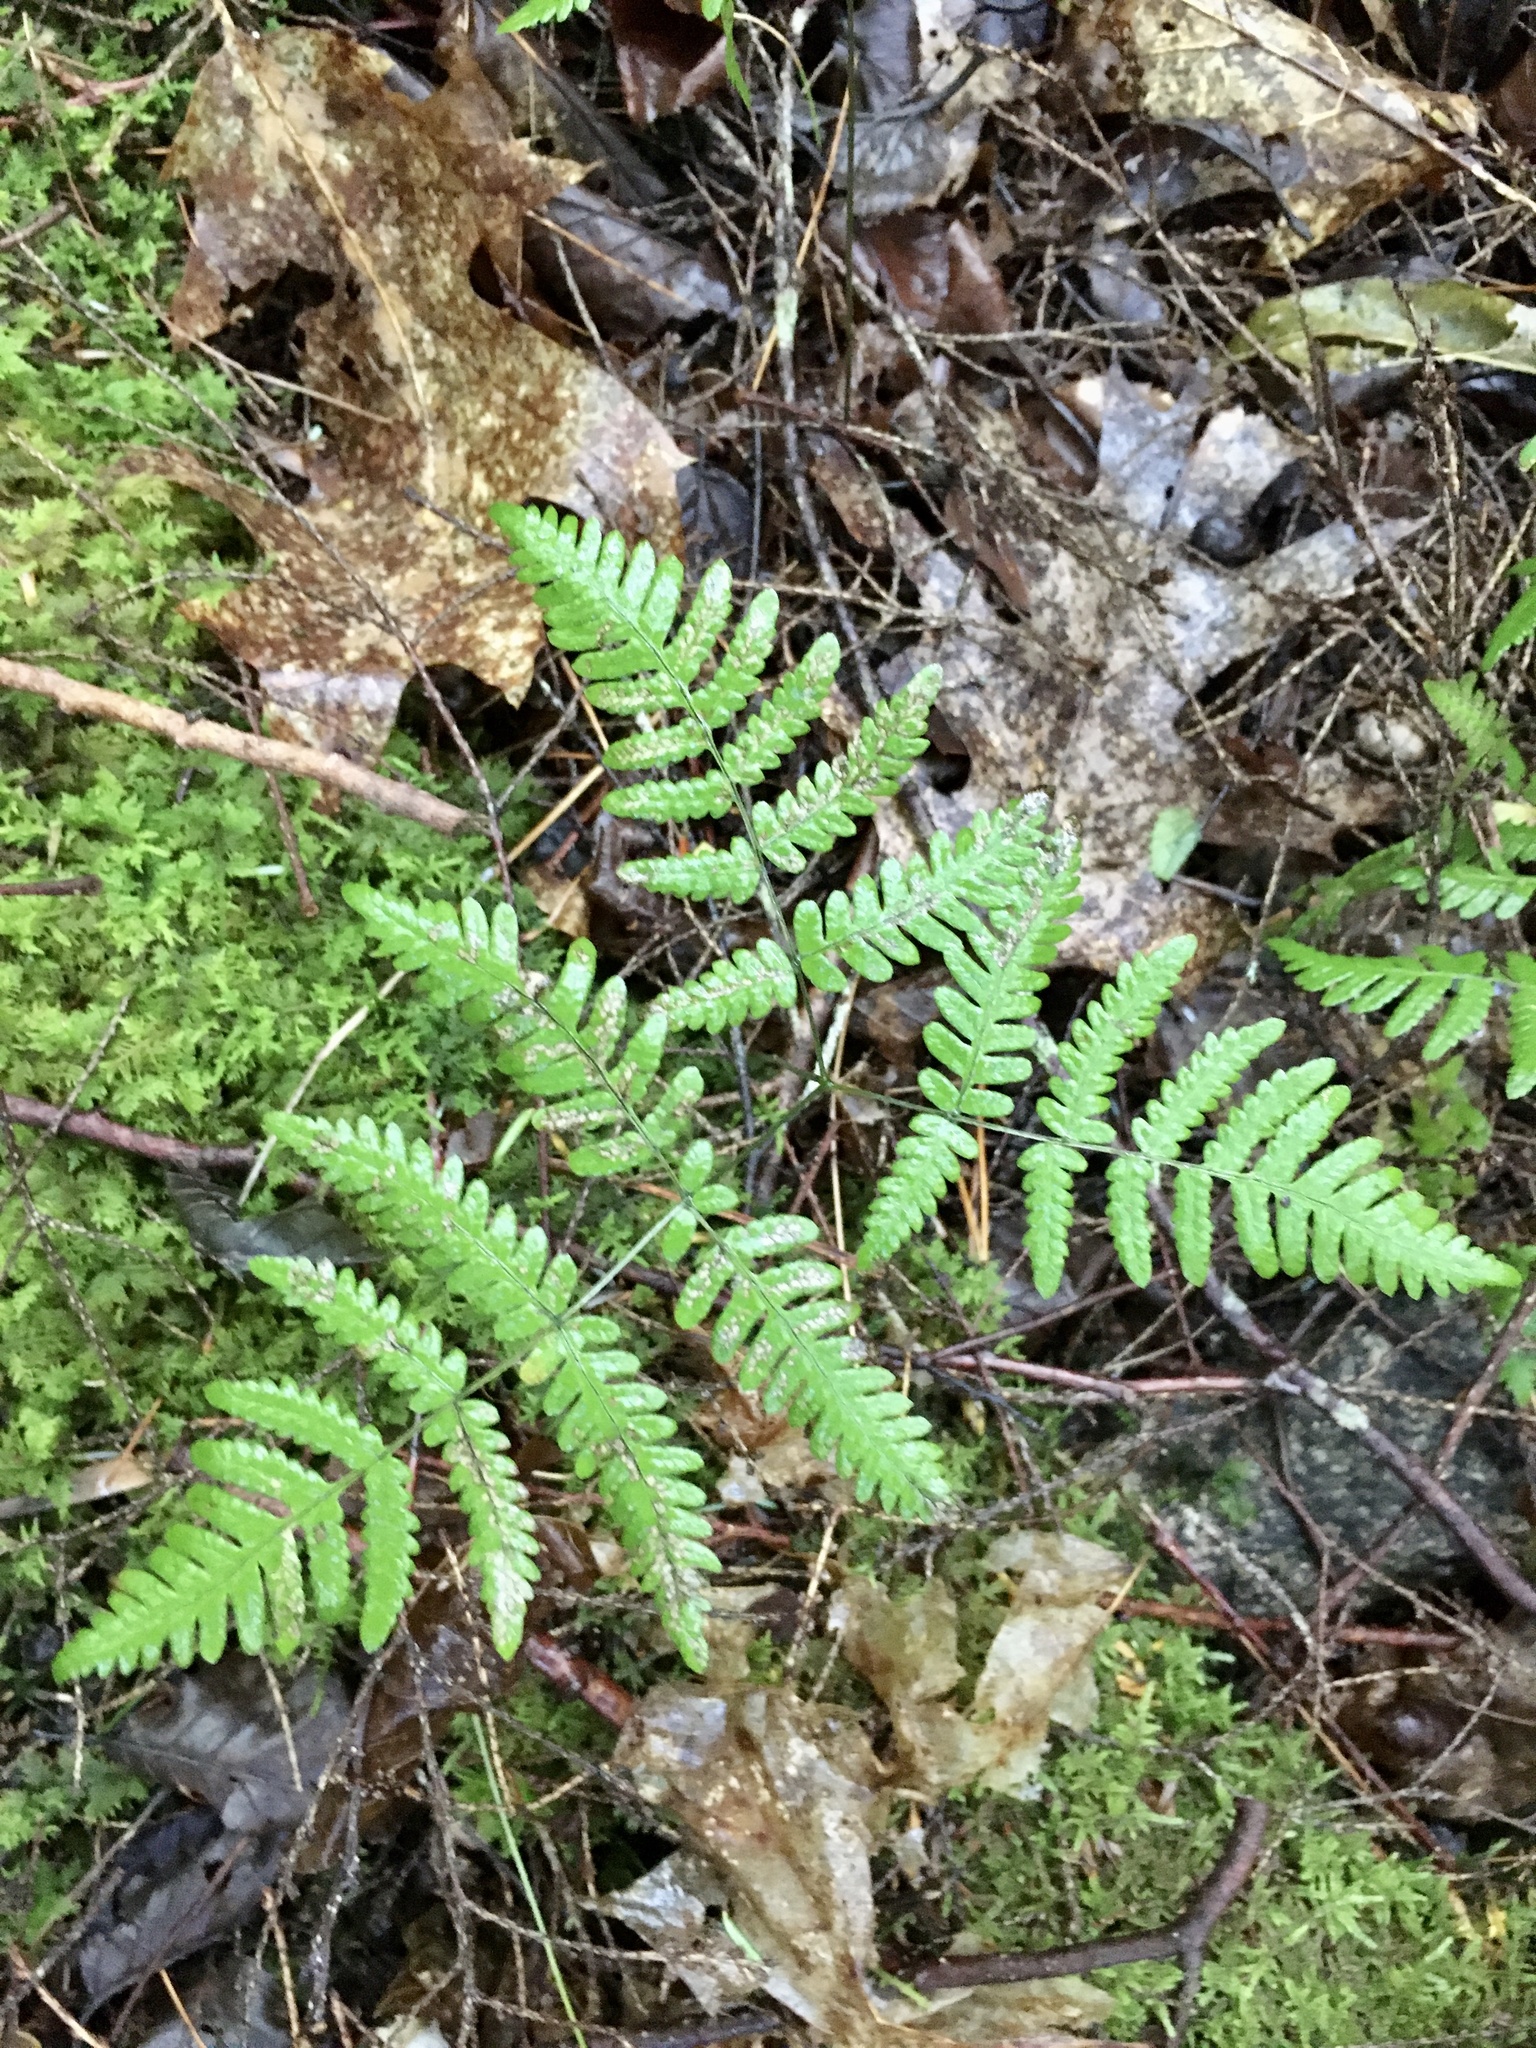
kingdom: Plantae
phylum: Tracheophyta
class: Polypodiopsida
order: Polypodiales
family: Cystopteridaceae
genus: Gymnocarpium
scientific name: Gymnocarpium dryopteris
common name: Oak fern
